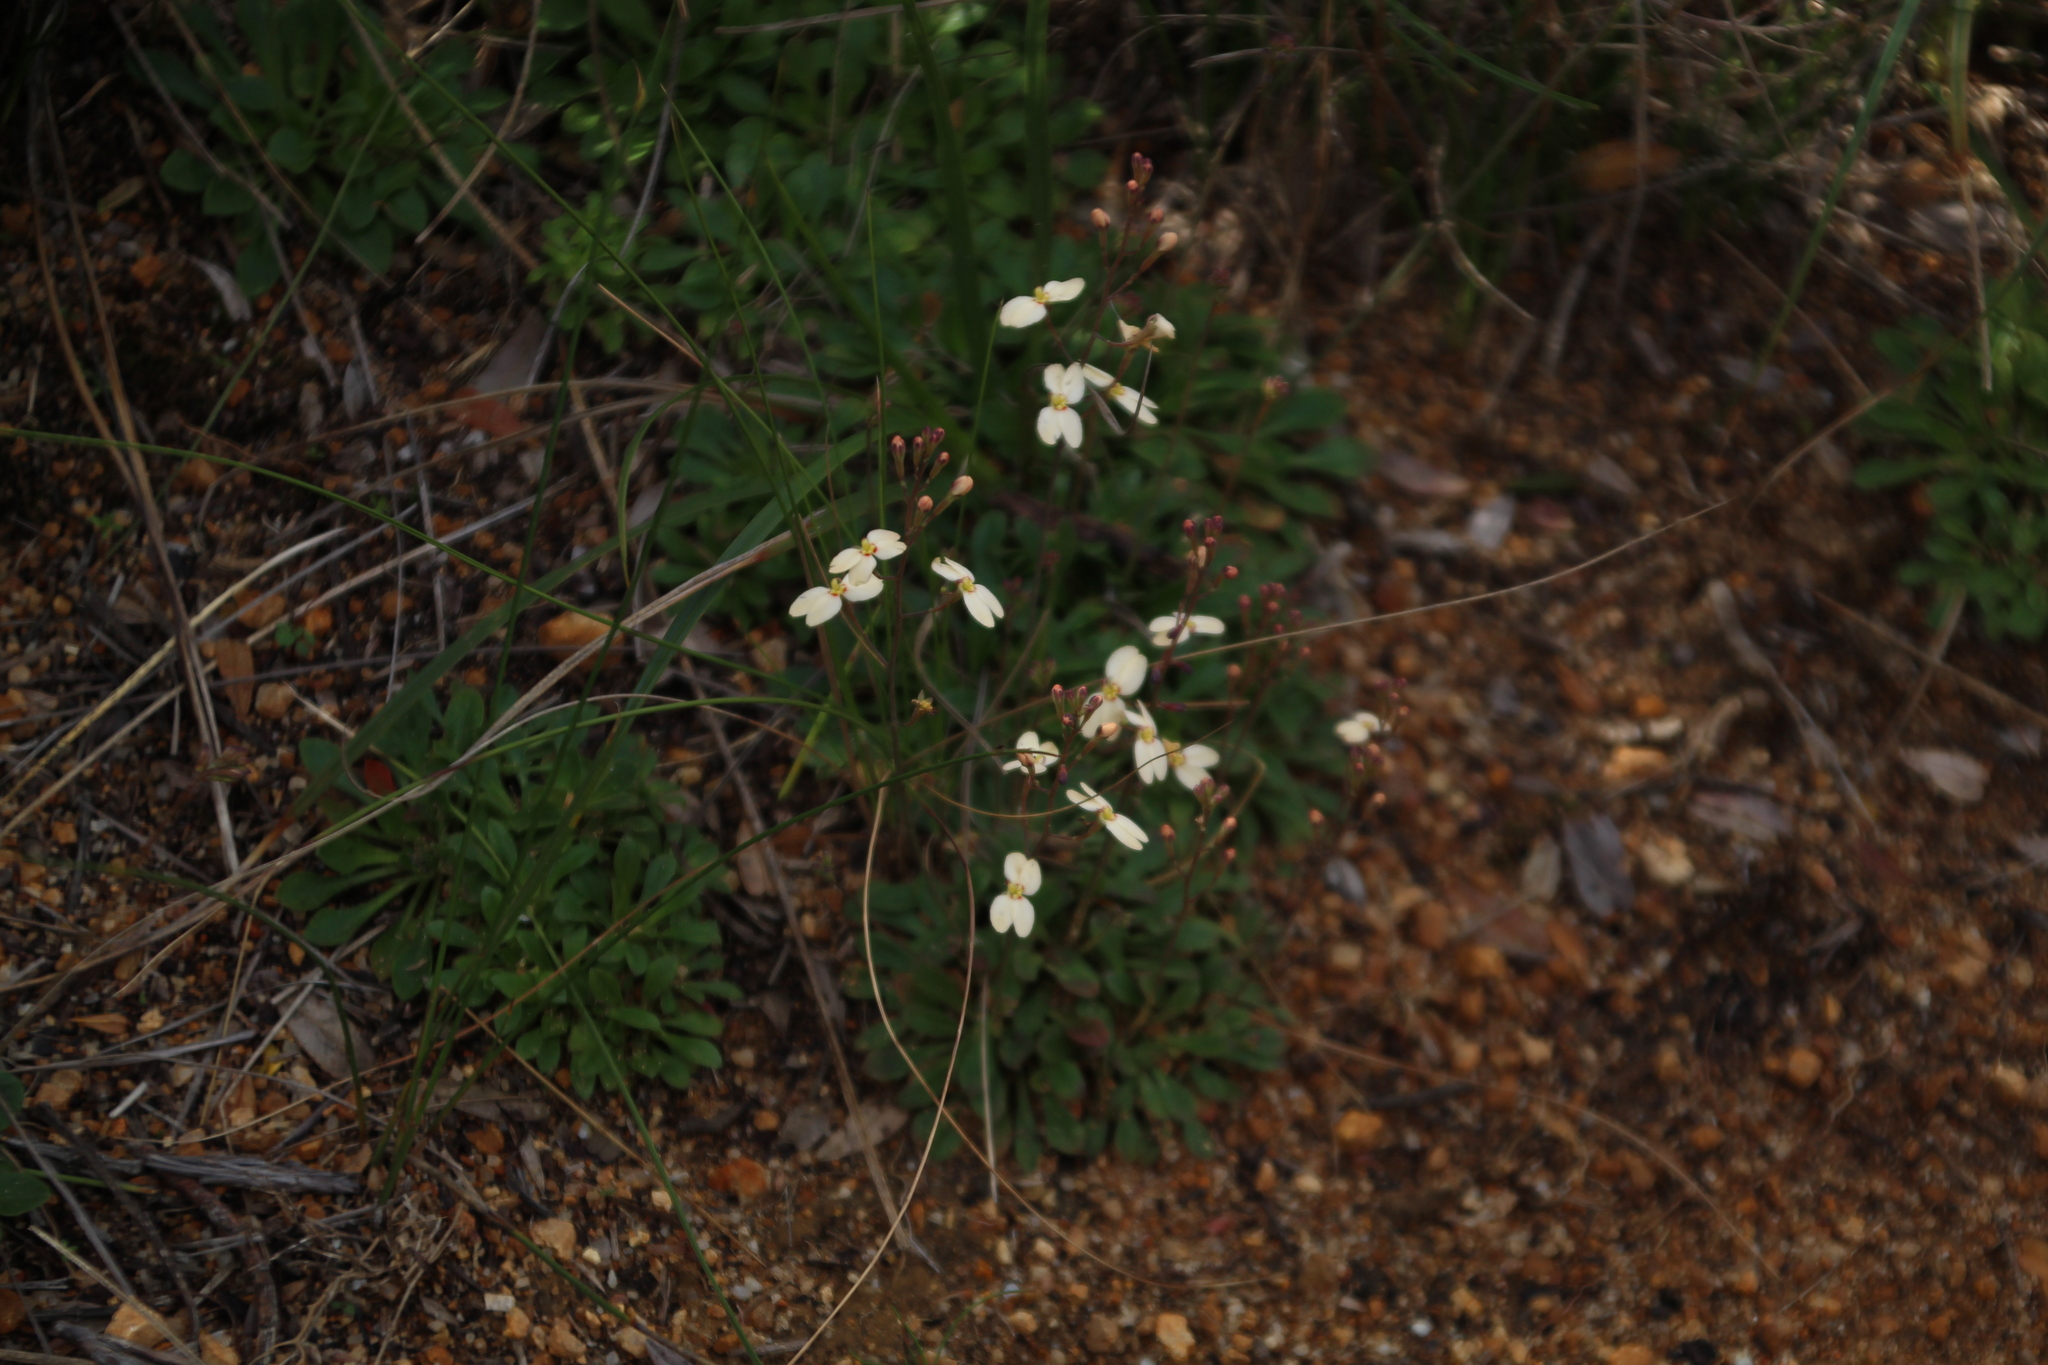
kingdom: Plantae
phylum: Tracheophyta
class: Magnoliopsida
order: Asterales
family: Stylidiaceae
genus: Stylidium
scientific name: Stylidium spathulatum
